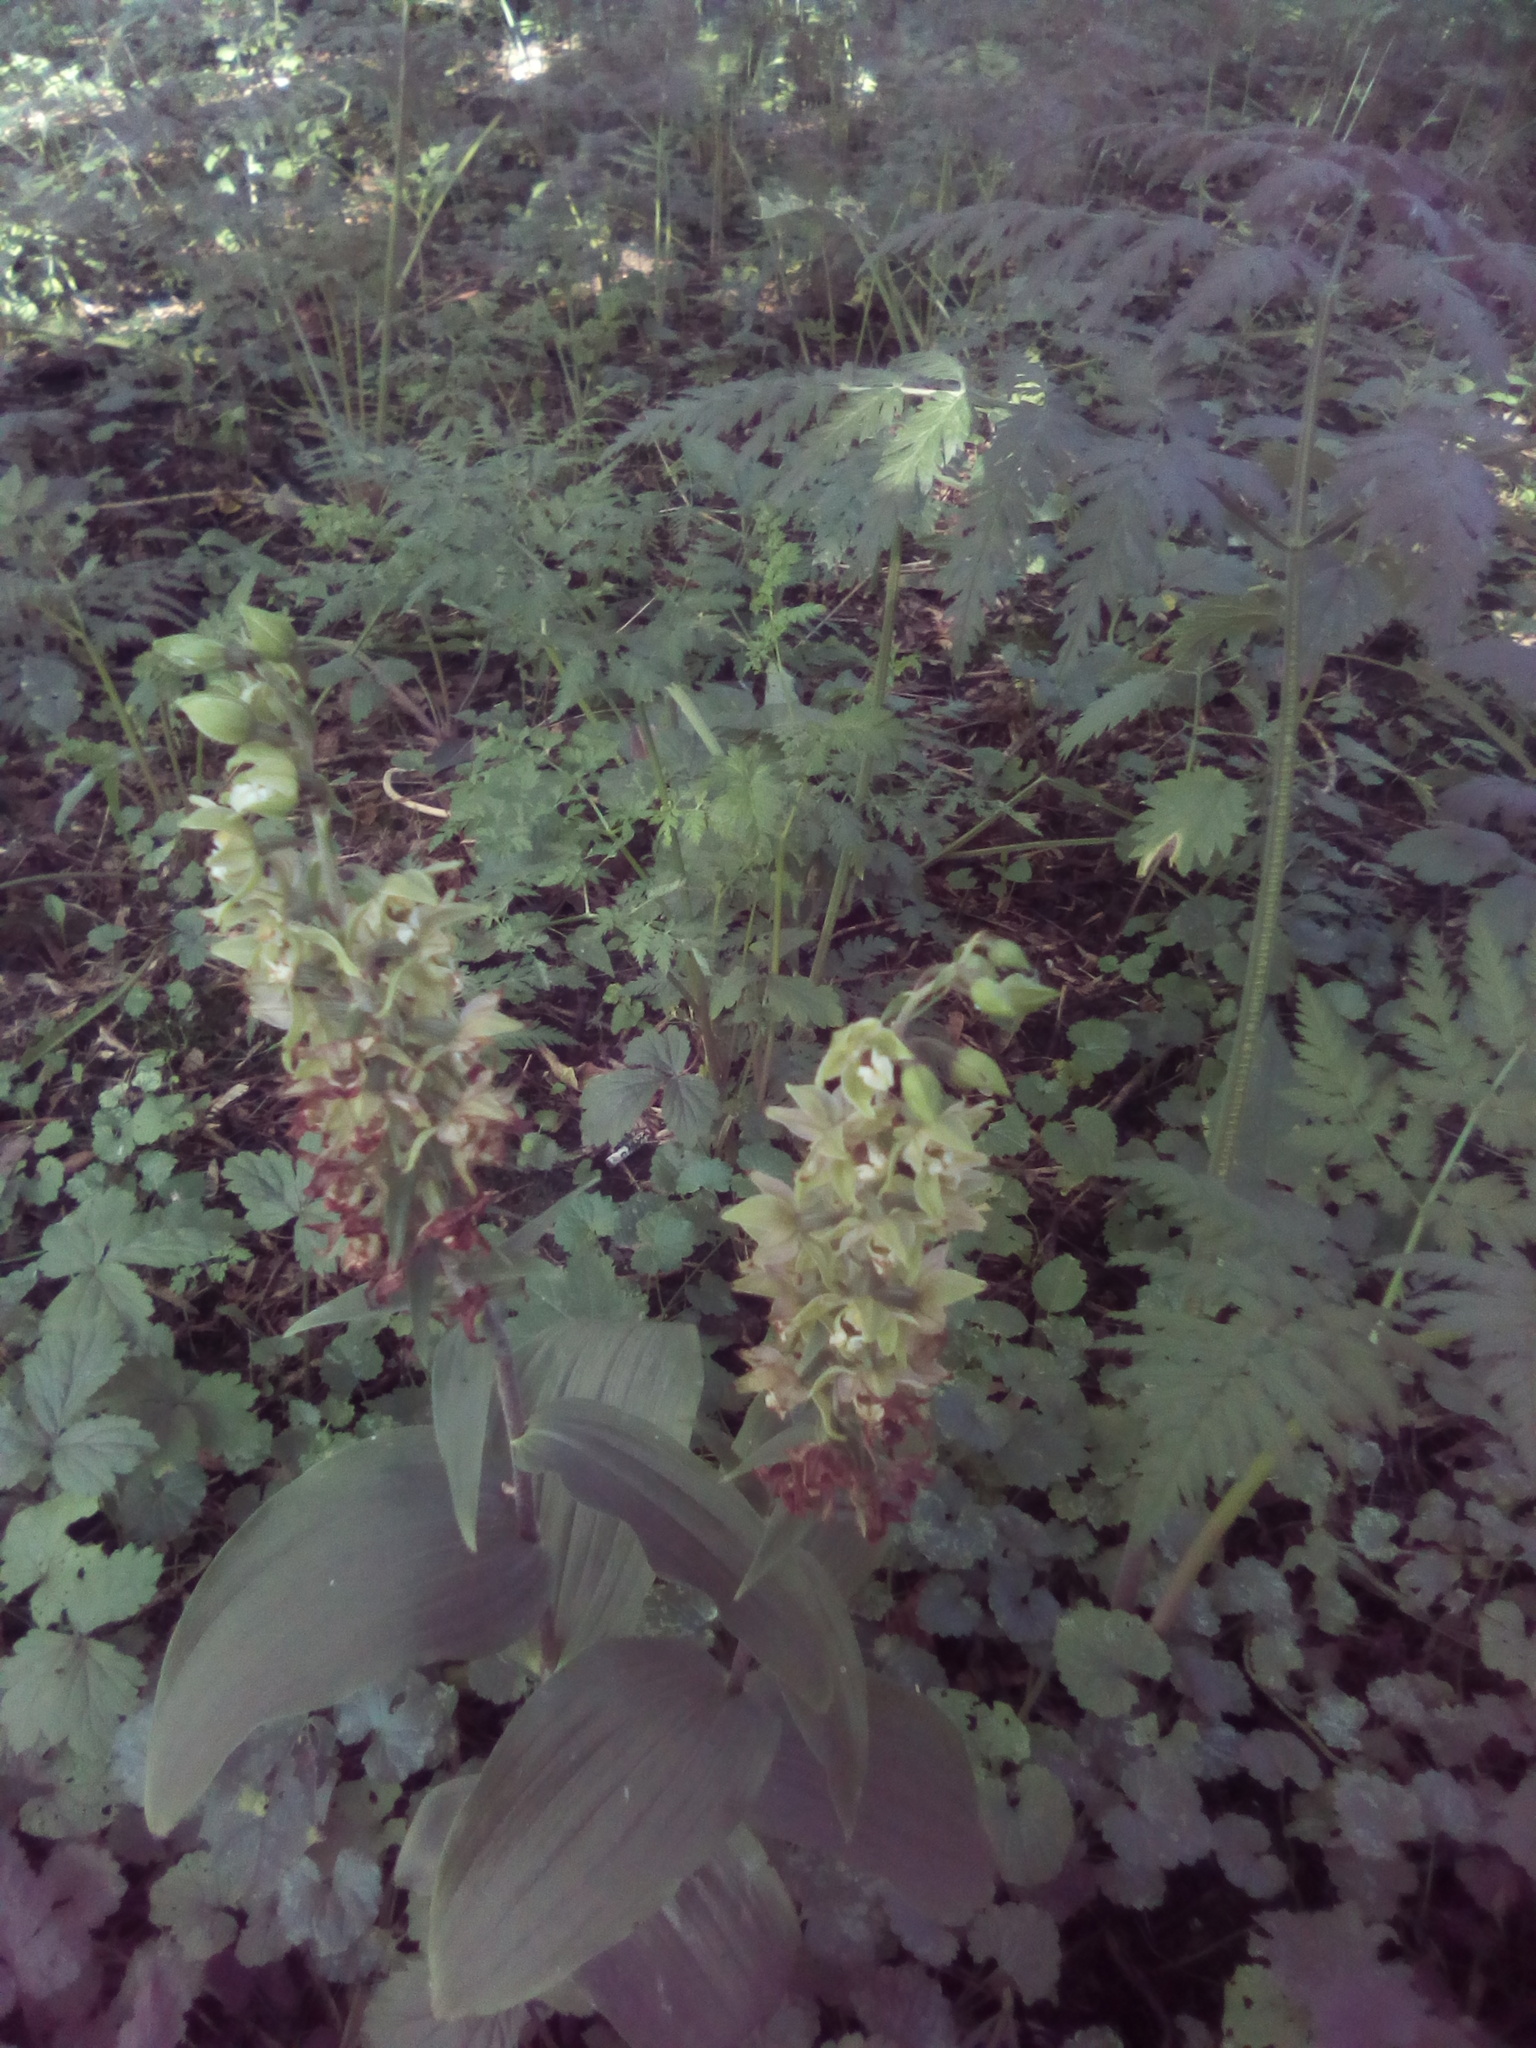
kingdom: Plantae
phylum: Tracheophyta
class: Liliopsida
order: Asparagales
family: Orchidaceae
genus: Epipactis
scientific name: Epipactis helleborine
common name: Broad-leaved helleborine
